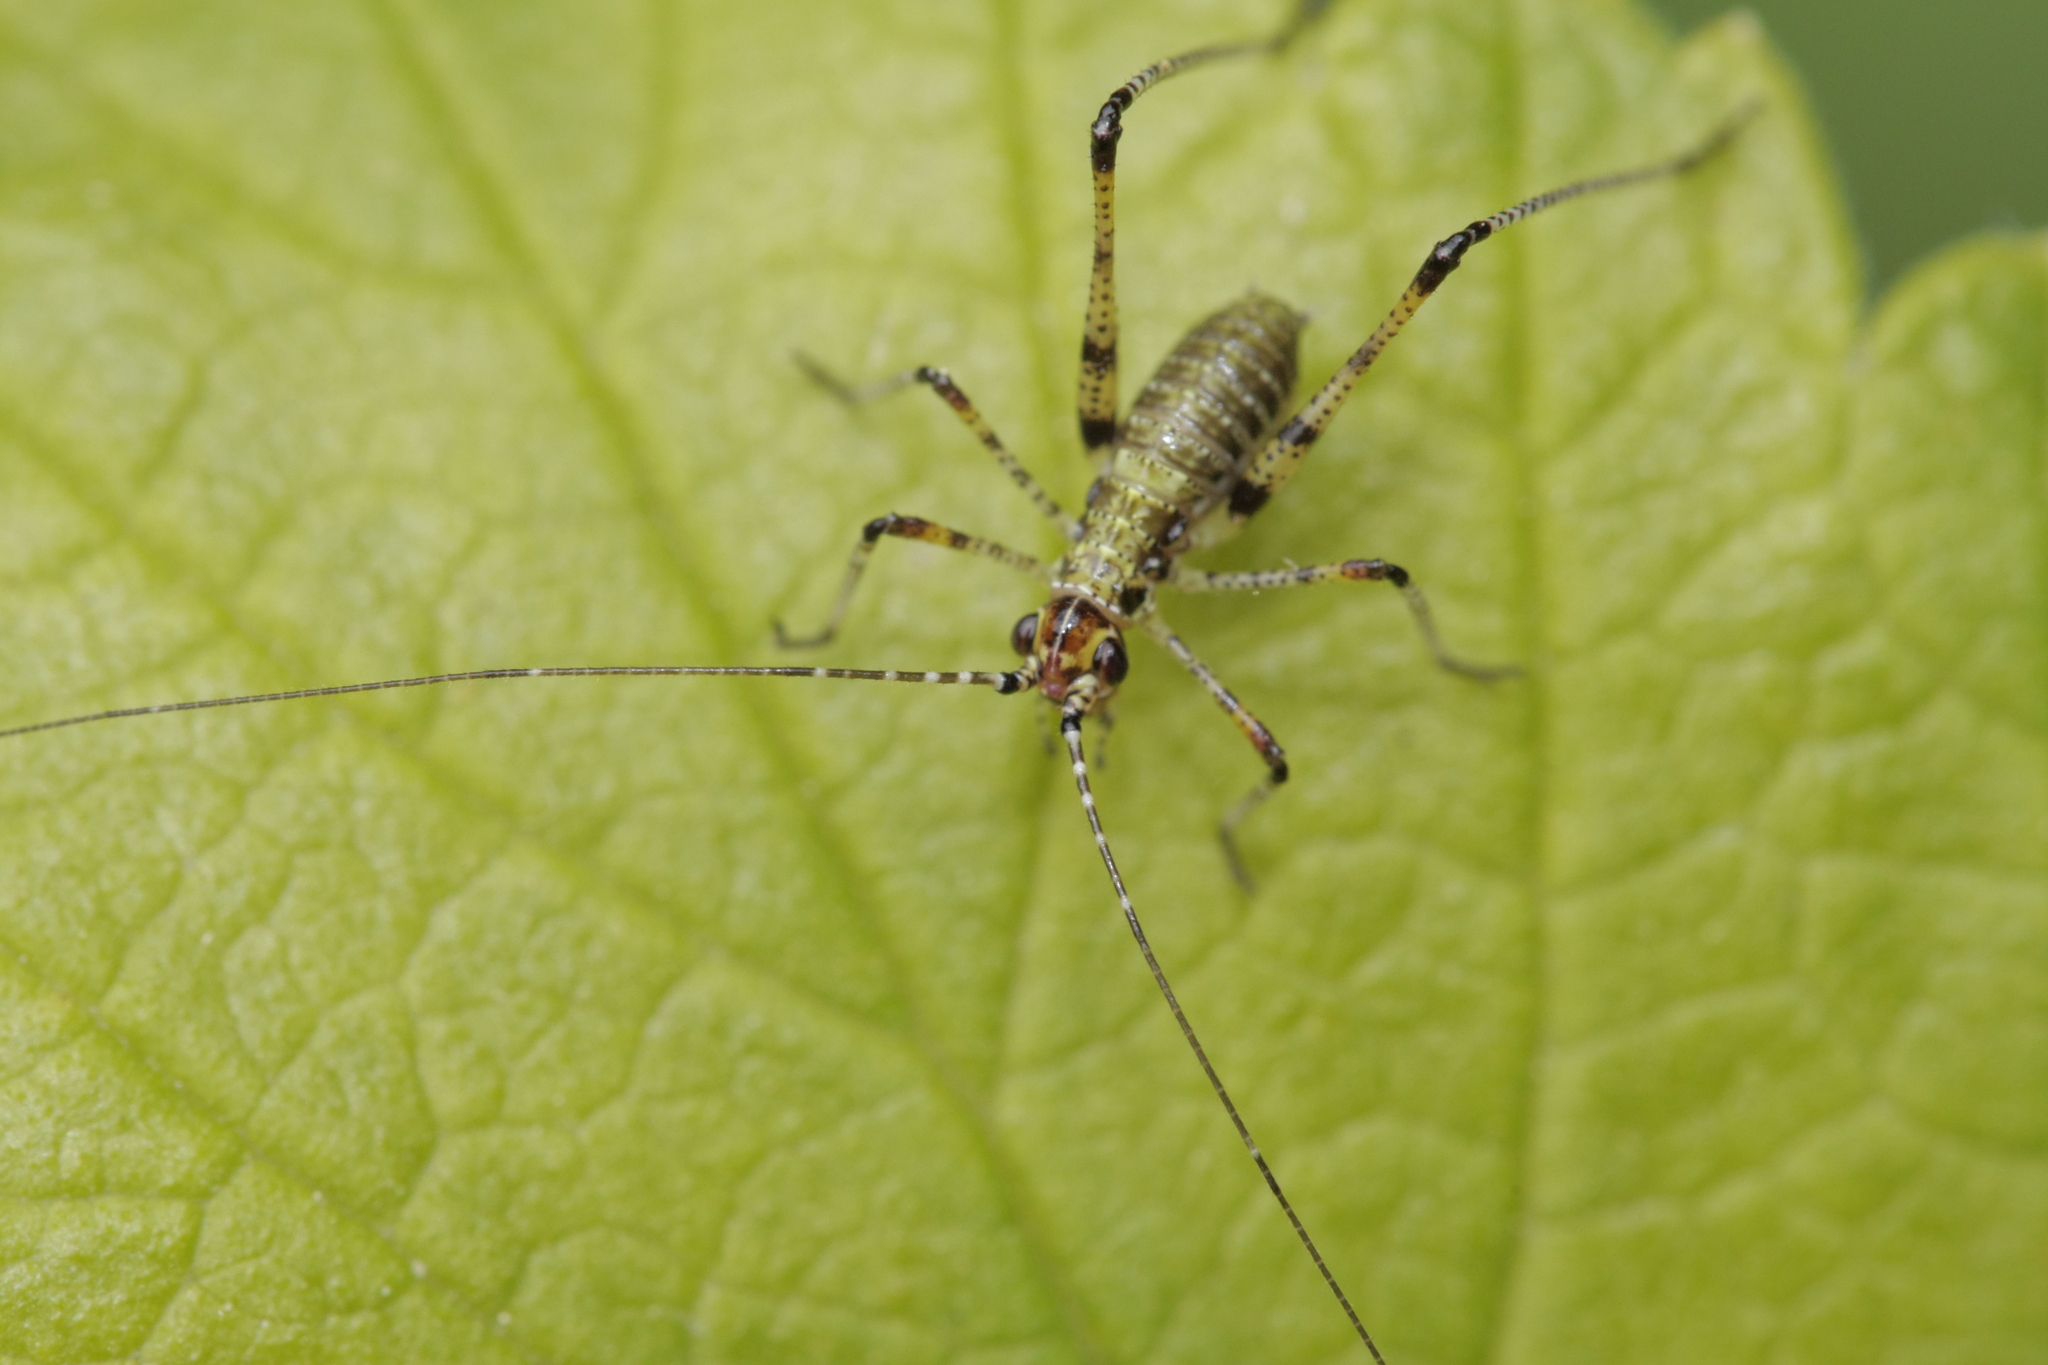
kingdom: Animalia
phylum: Arthropoda
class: Insecta
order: Orthoptera
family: Tettigoniidae
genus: Phaneroptera
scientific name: Phaneroptera nana
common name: Southern sickle bush-cricket
